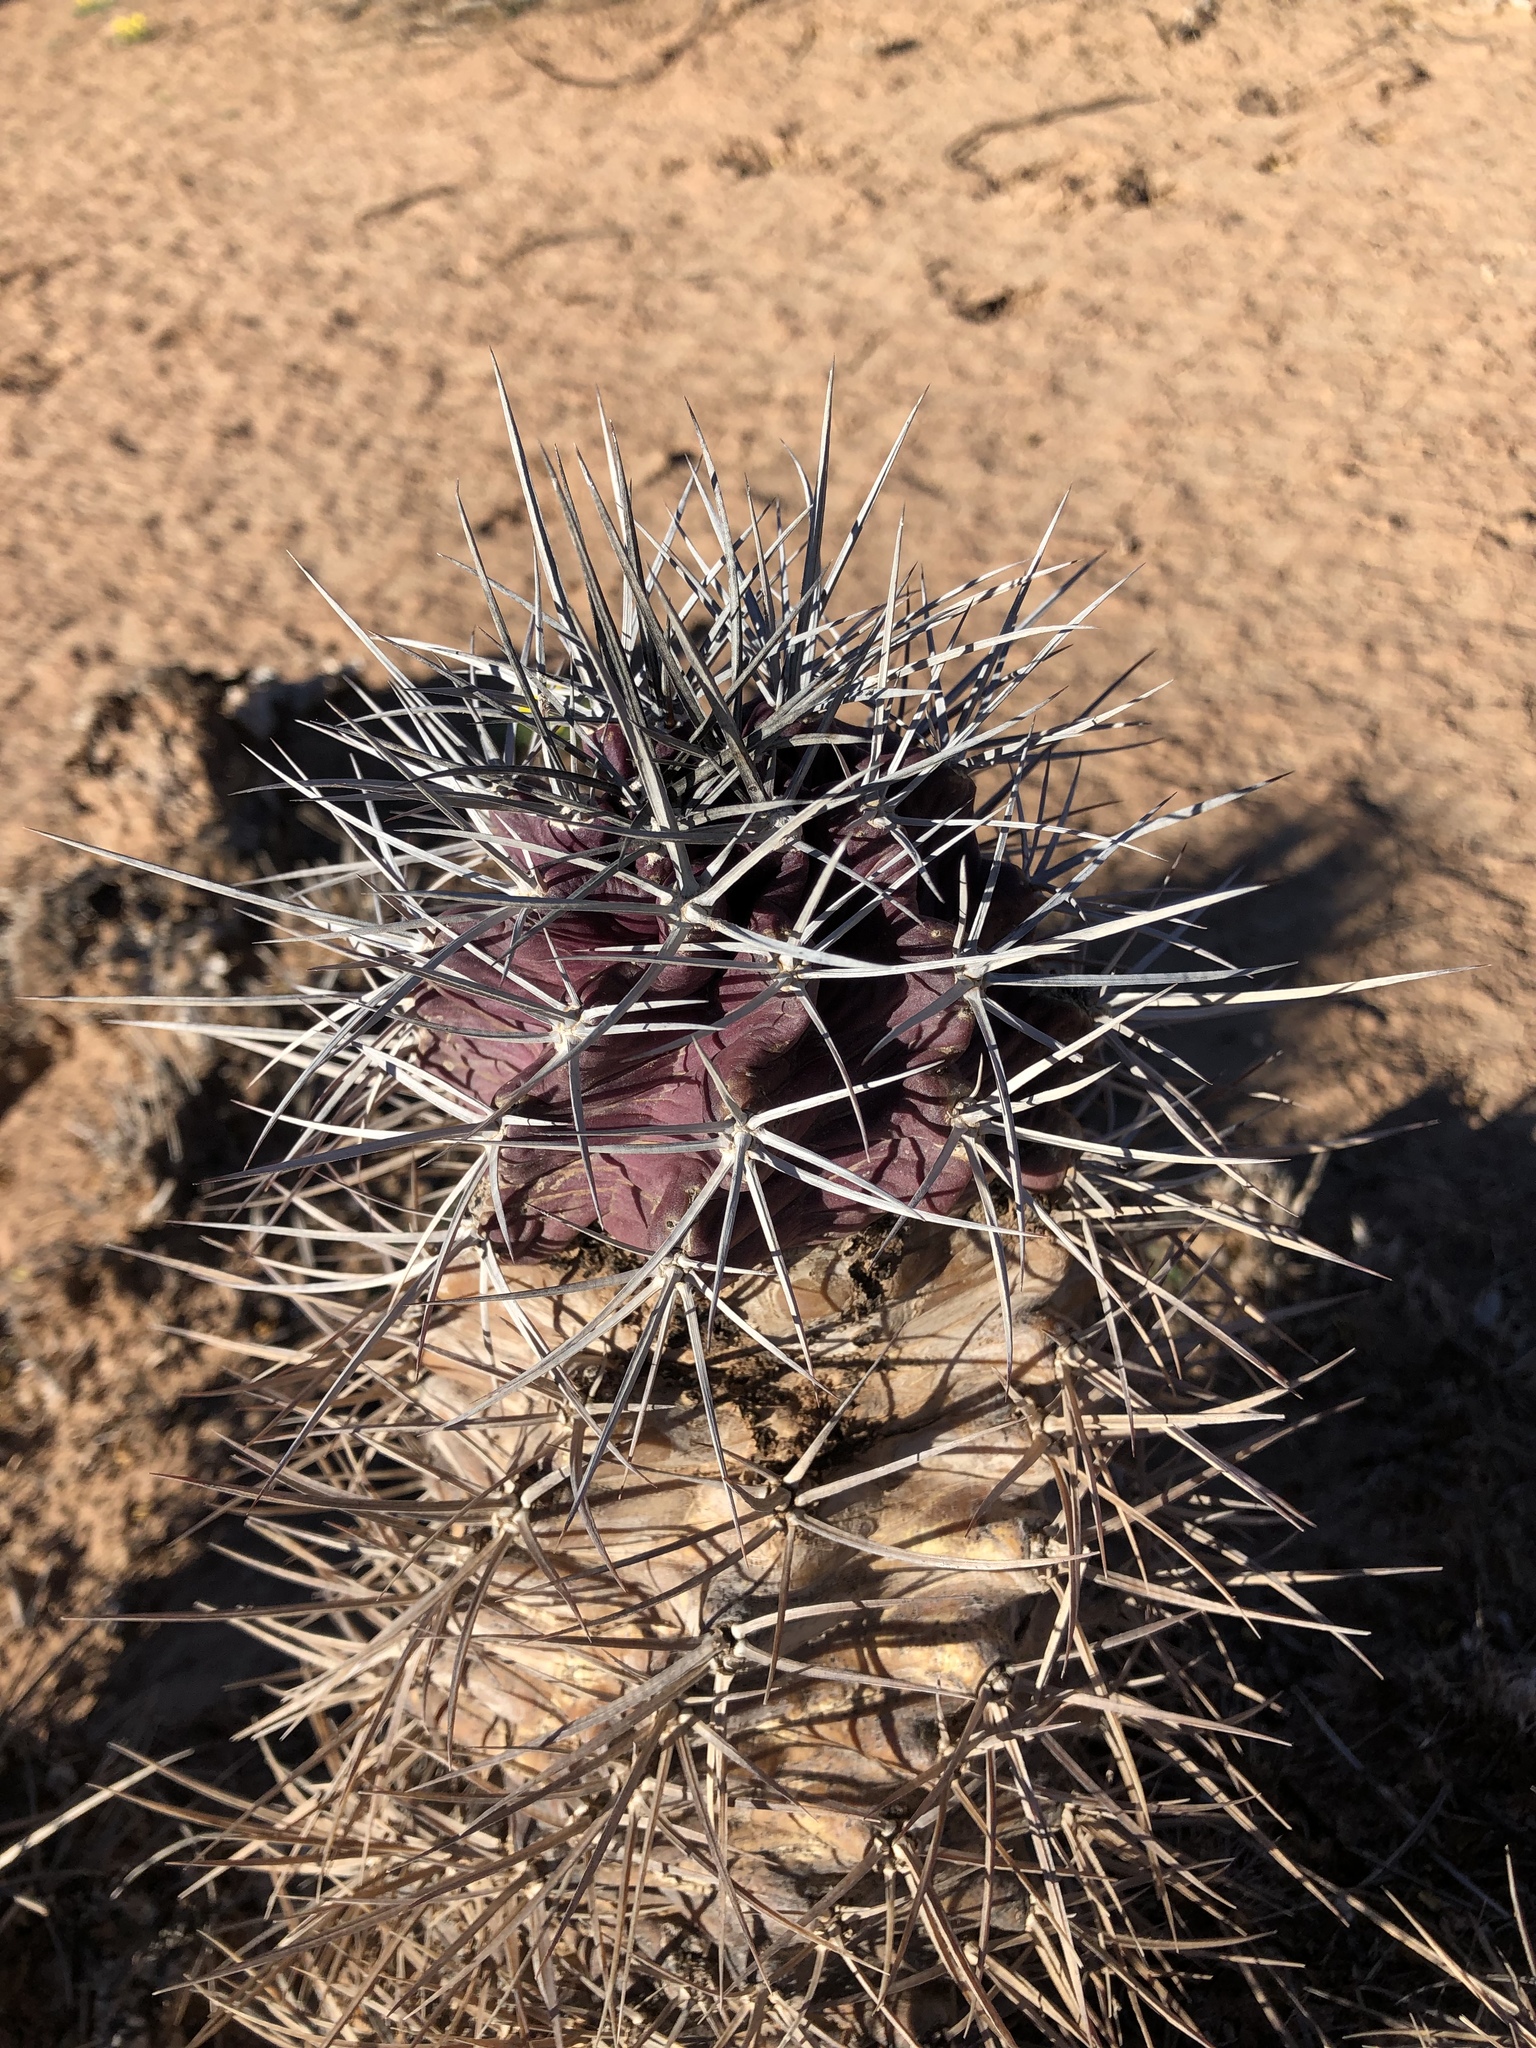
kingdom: Plantae
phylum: Tracheophyta
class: Magnoliopsida
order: Caryophyllales
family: Cactaceae
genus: Echinocereus
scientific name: Echinocereus triglochidiatus
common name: Claretcup hedgehog
